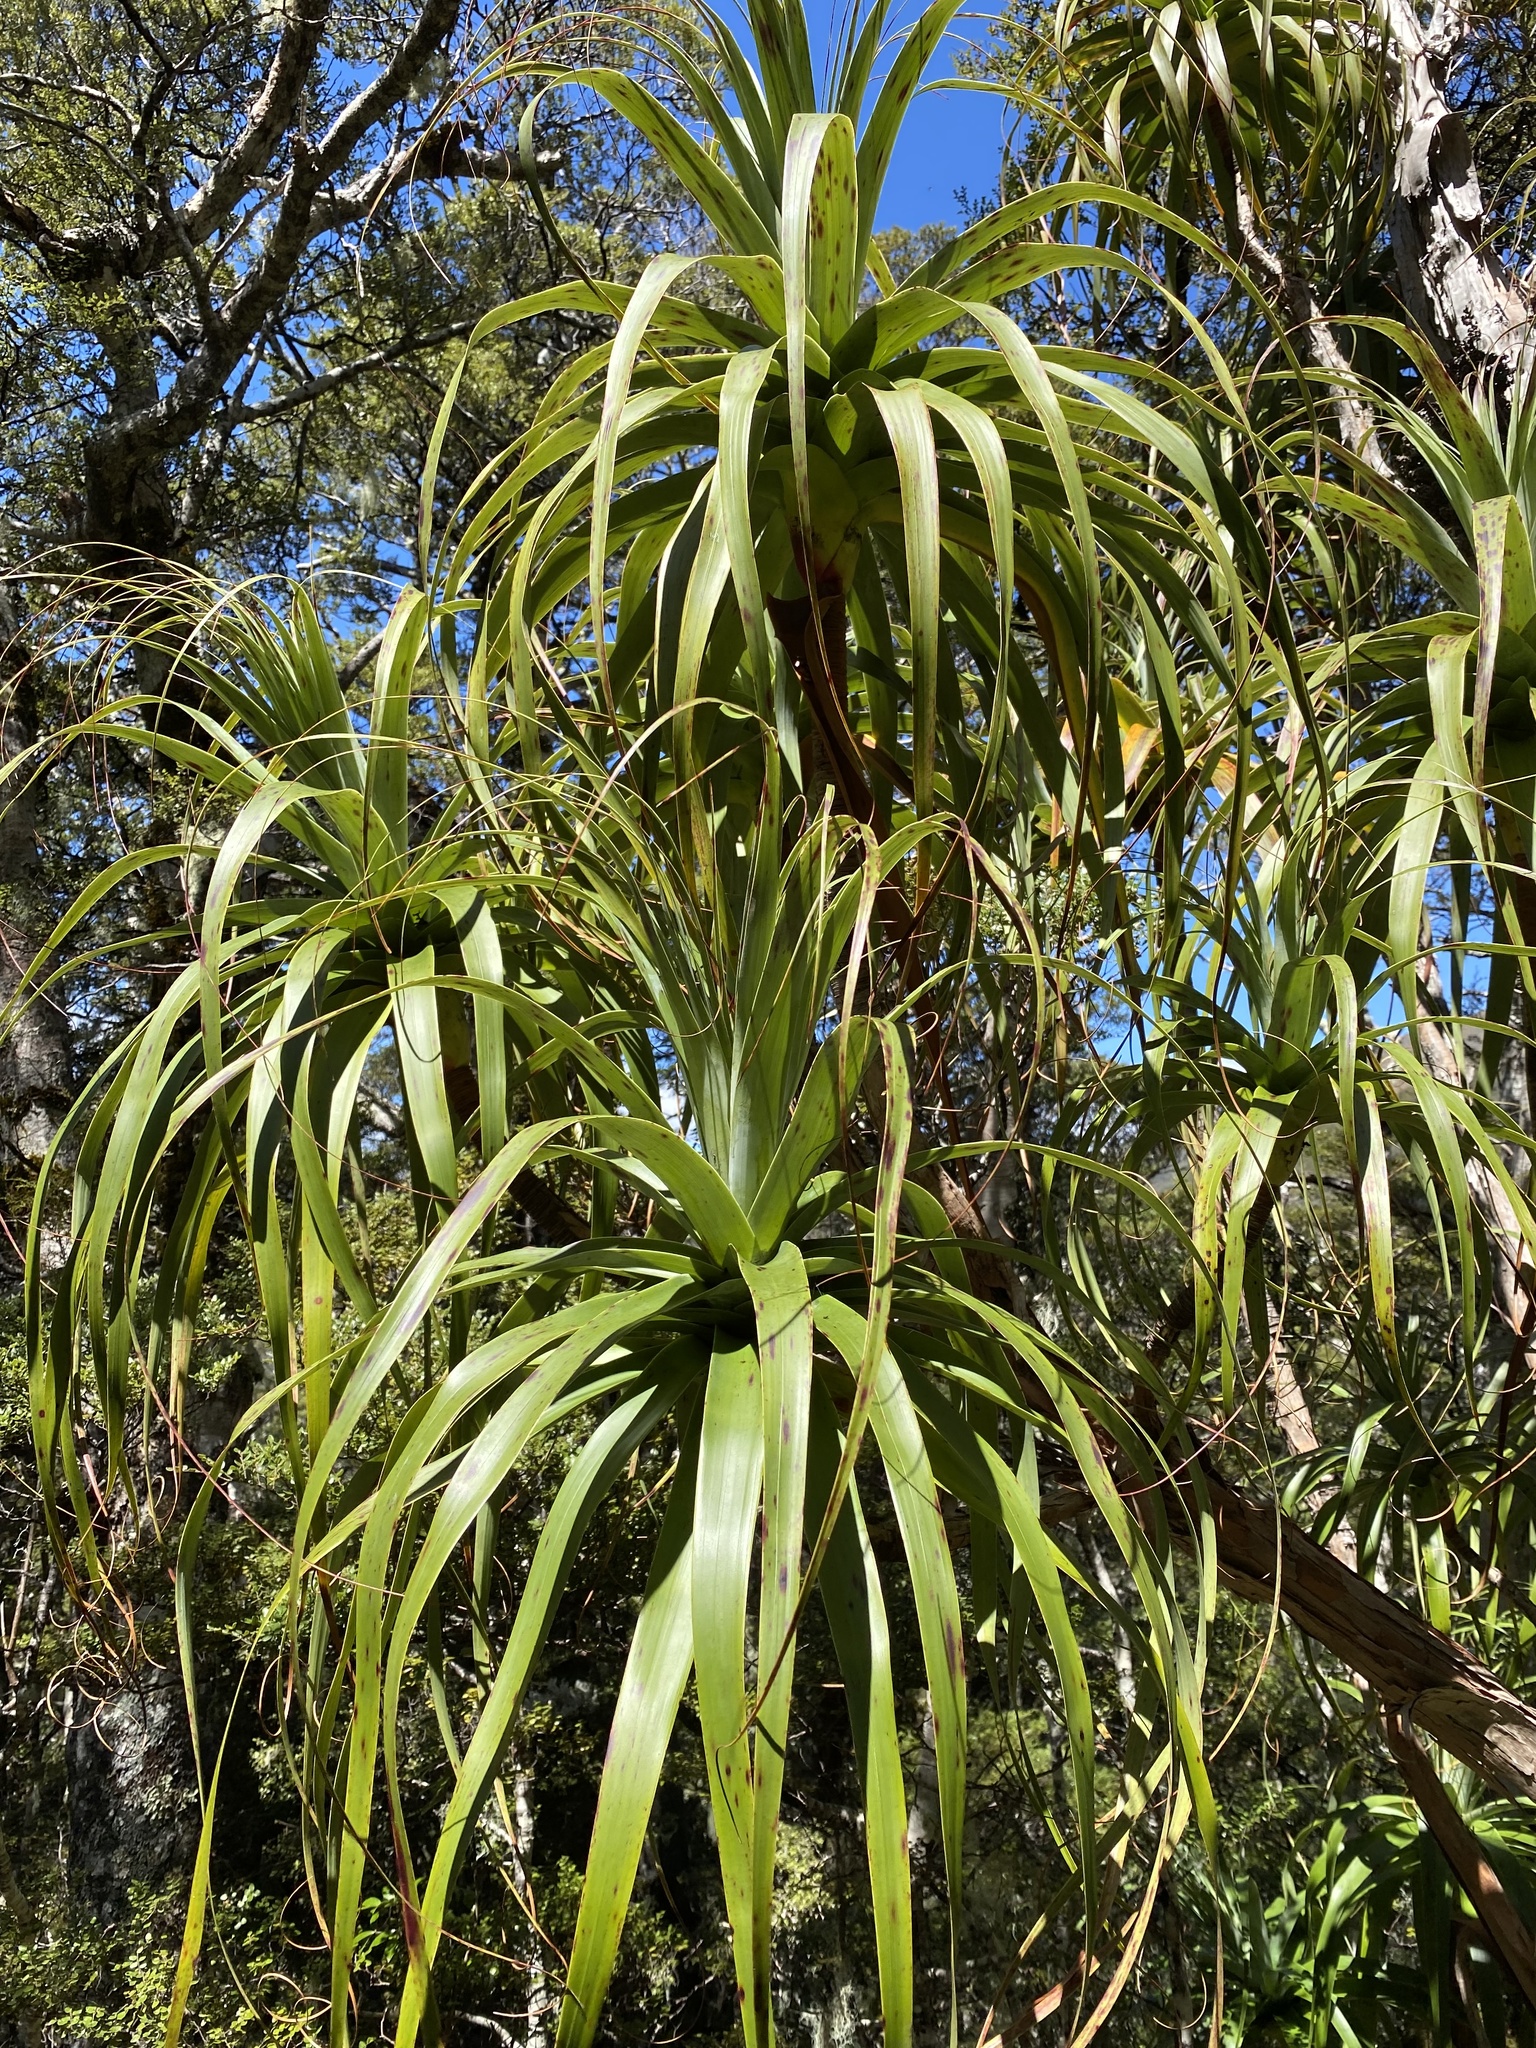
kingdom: Plantae
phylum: Tracheophyta
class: Magnoliopsida
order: Ericales
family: Ericaceae
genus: Dracophyllum
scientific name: Dracophyllum traversii
